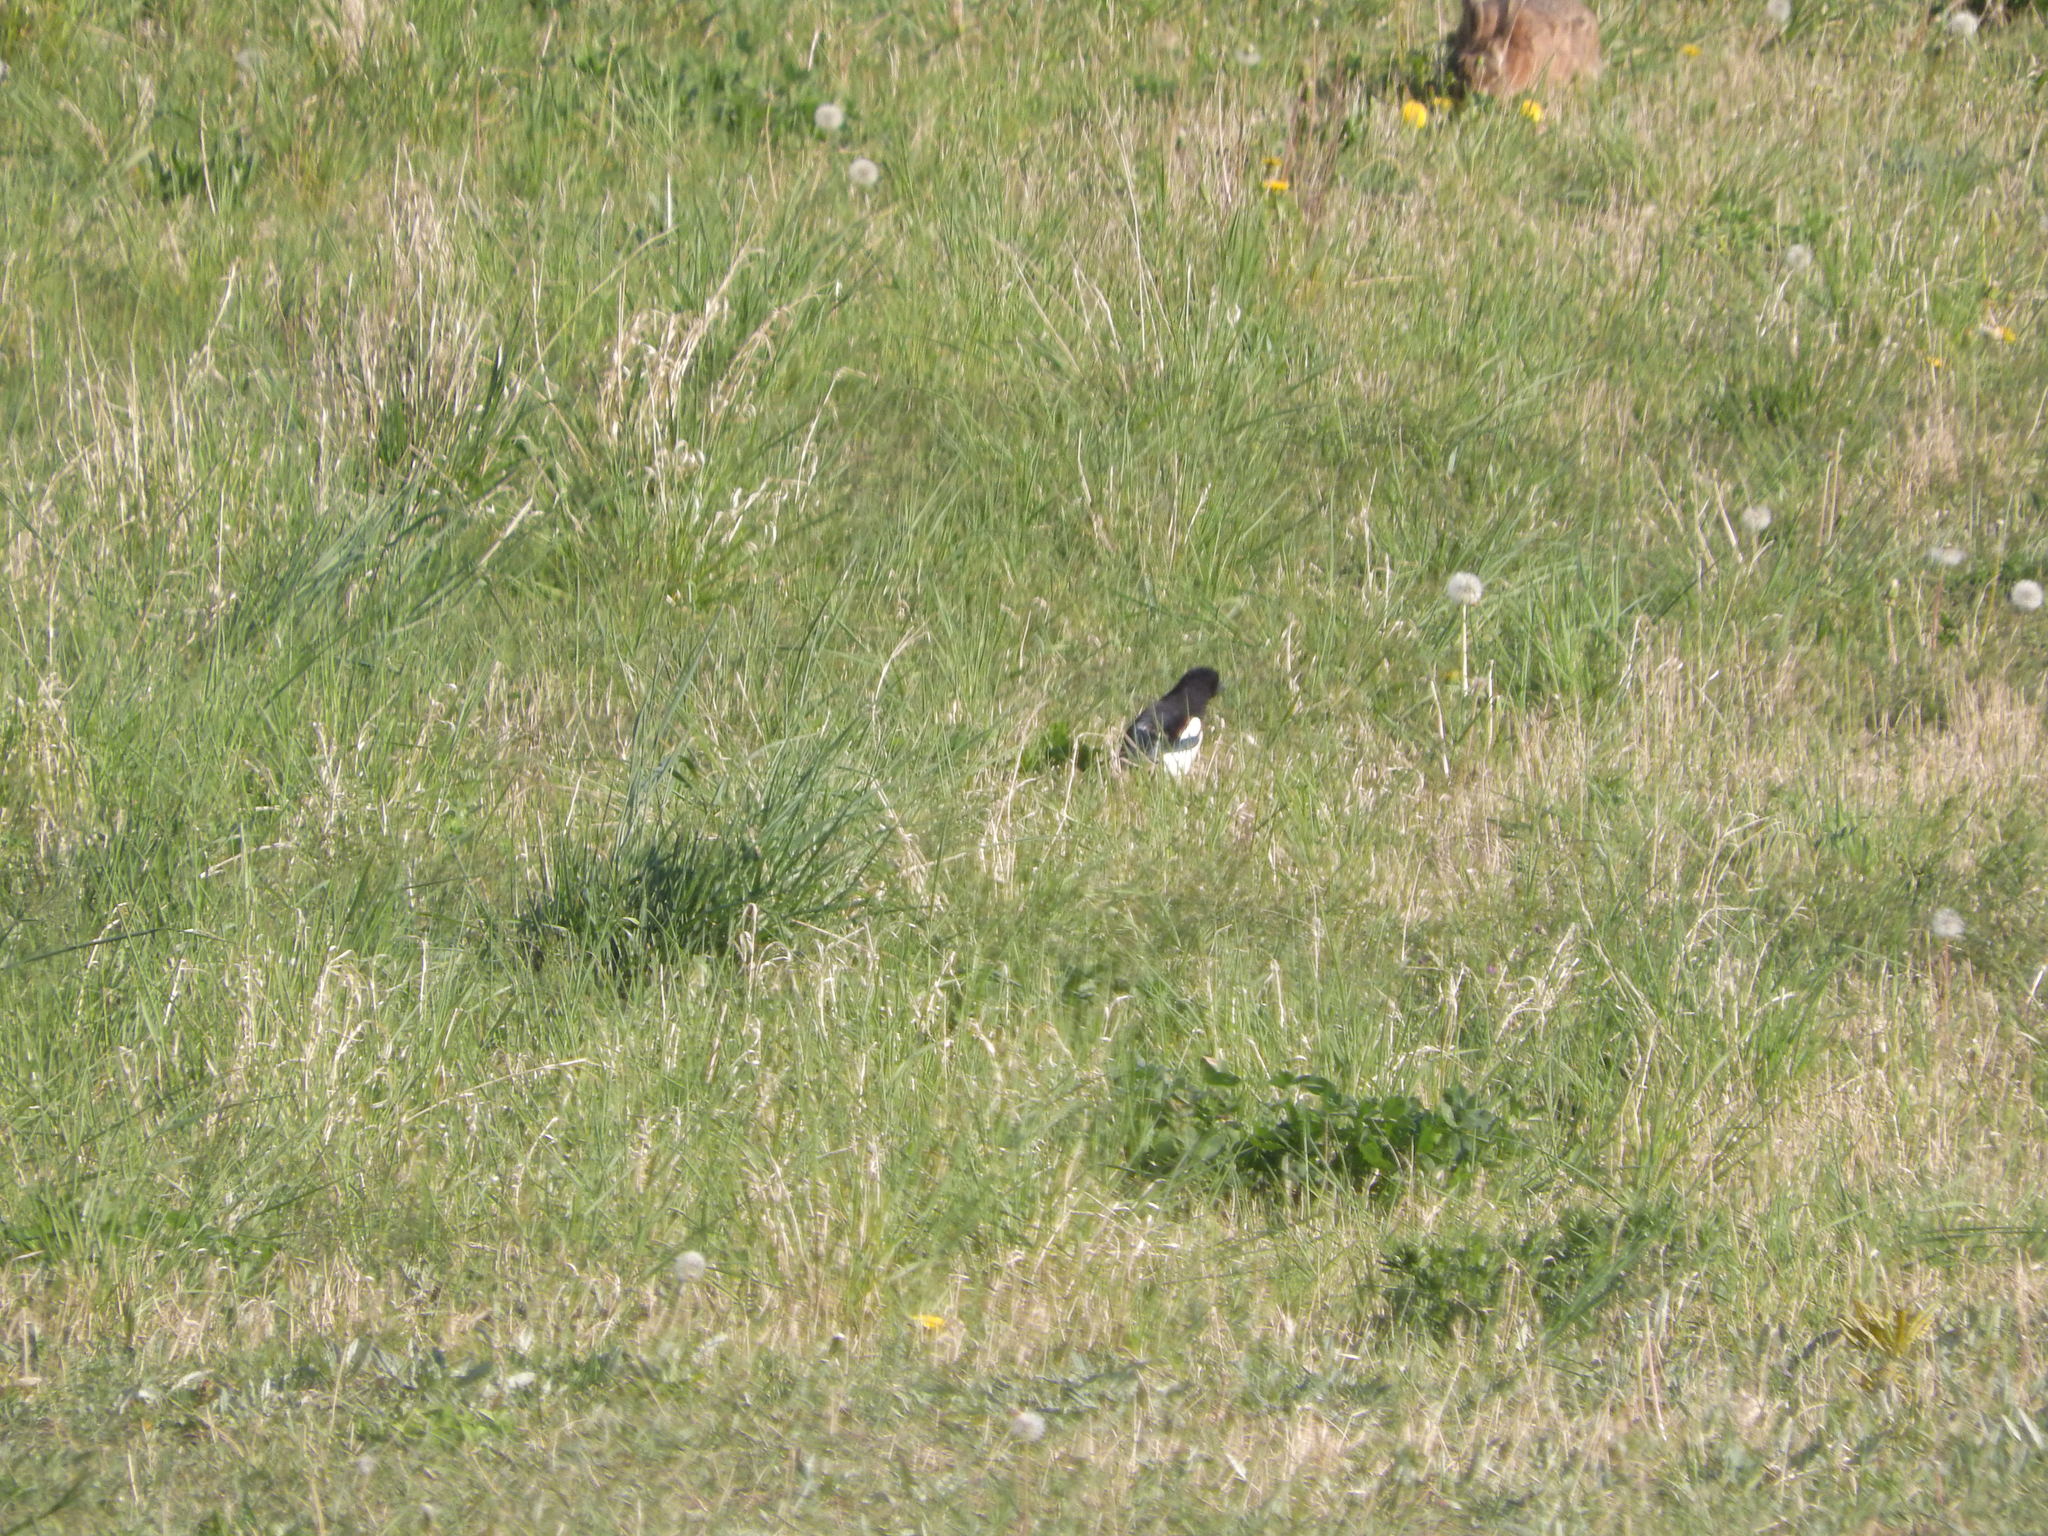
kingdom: Animalia
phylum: Chordata
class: Aves
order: Passeriformes
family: Corvidae
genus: Pica
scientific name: Pica pica
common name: Eurasian magpie
